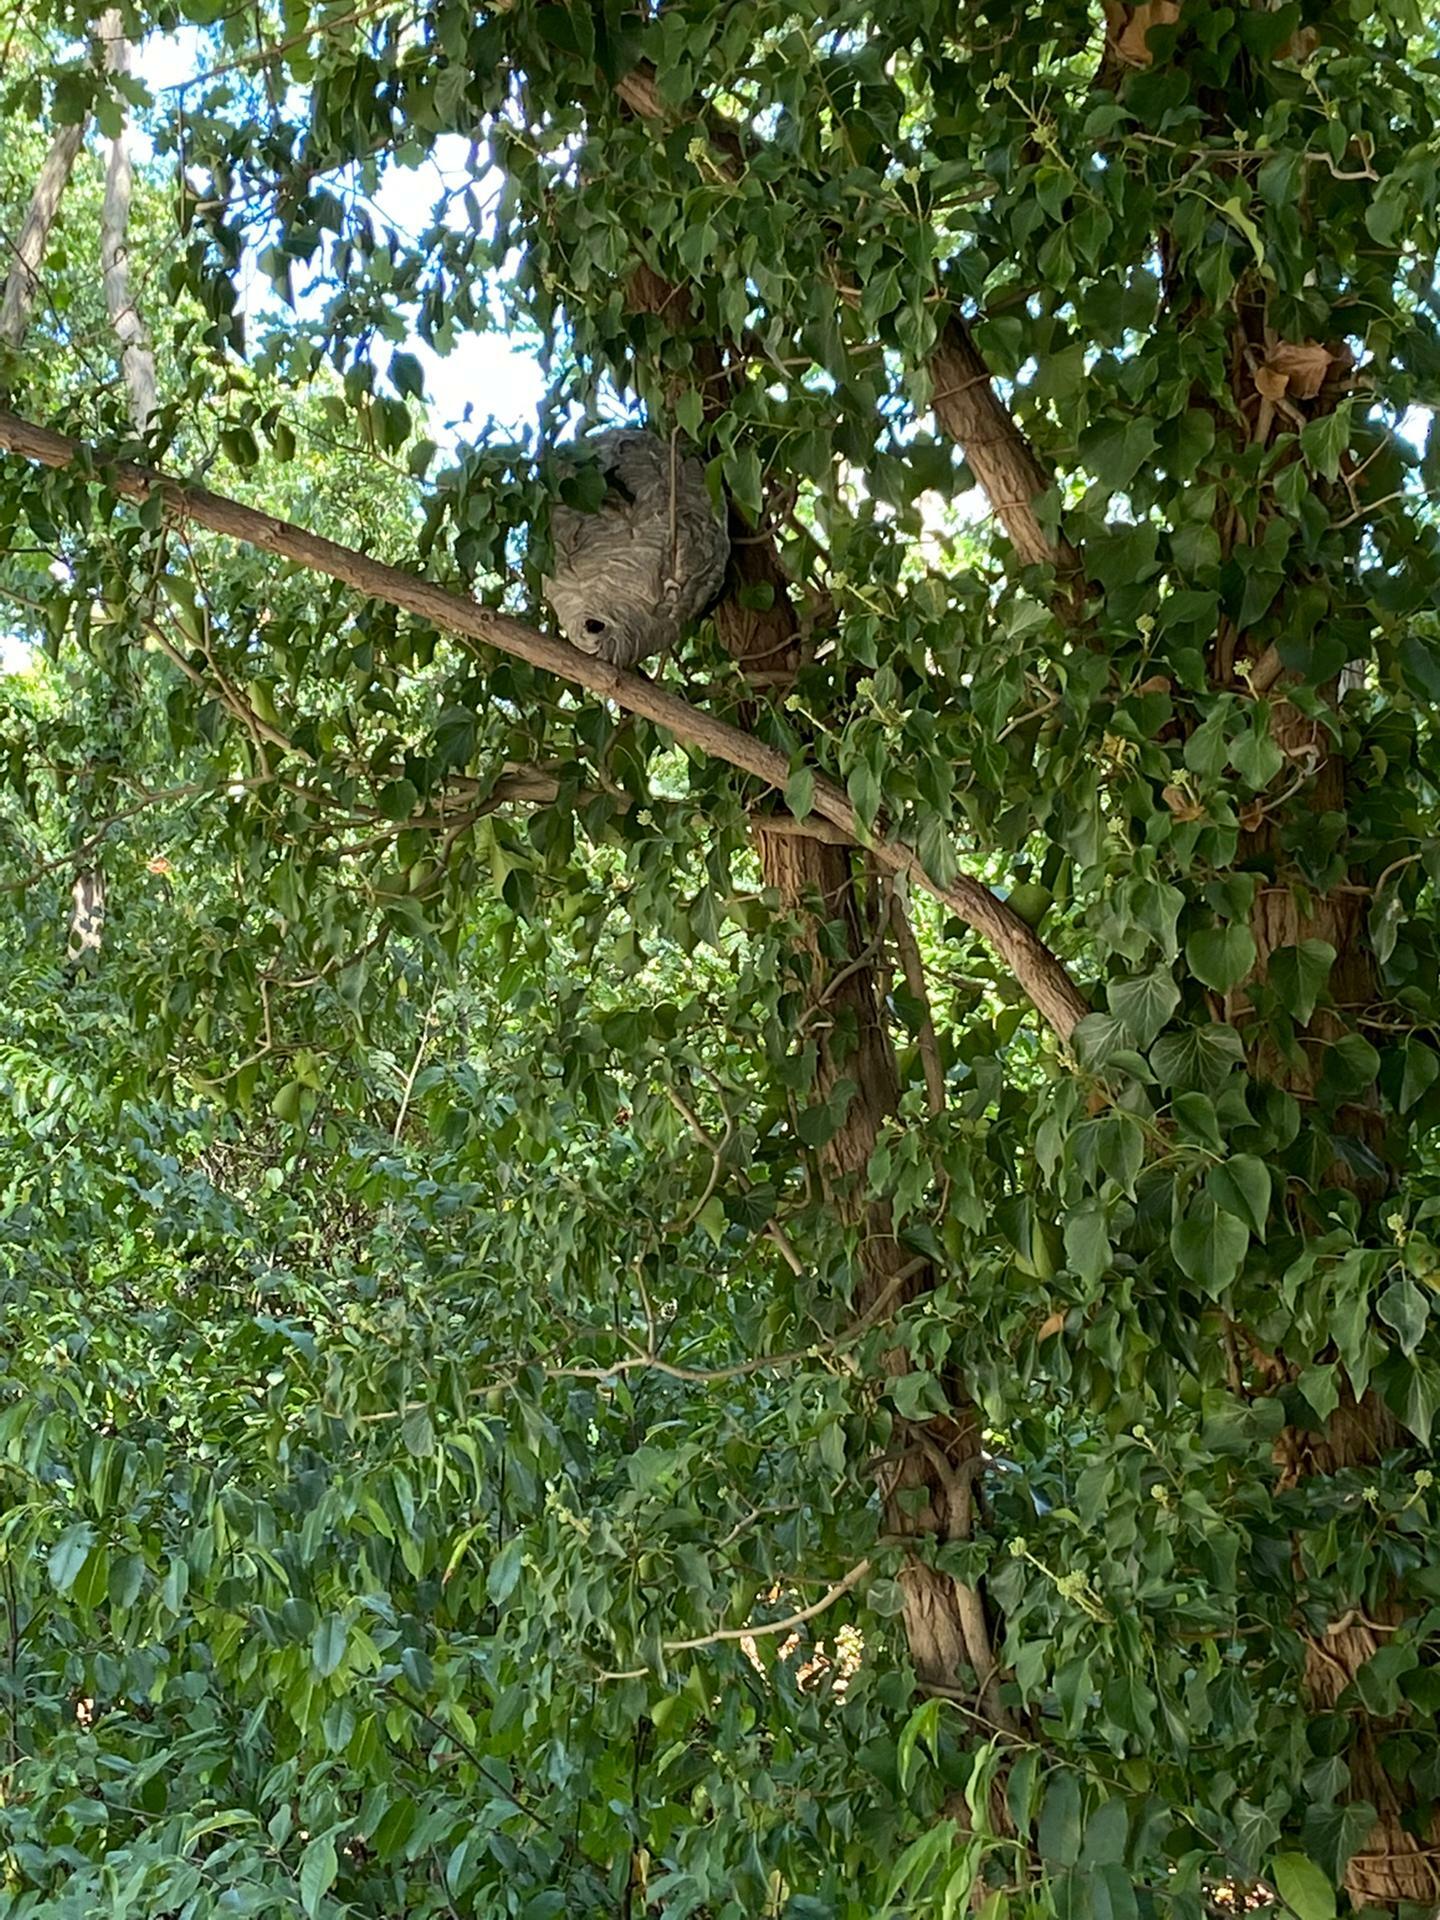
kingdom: Animalia
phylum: Arthropoda
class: Insecta
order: Hymenoptera
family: Vespidae
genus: Dolichovespula
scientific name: Dolichovespula media
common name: Median wasp
